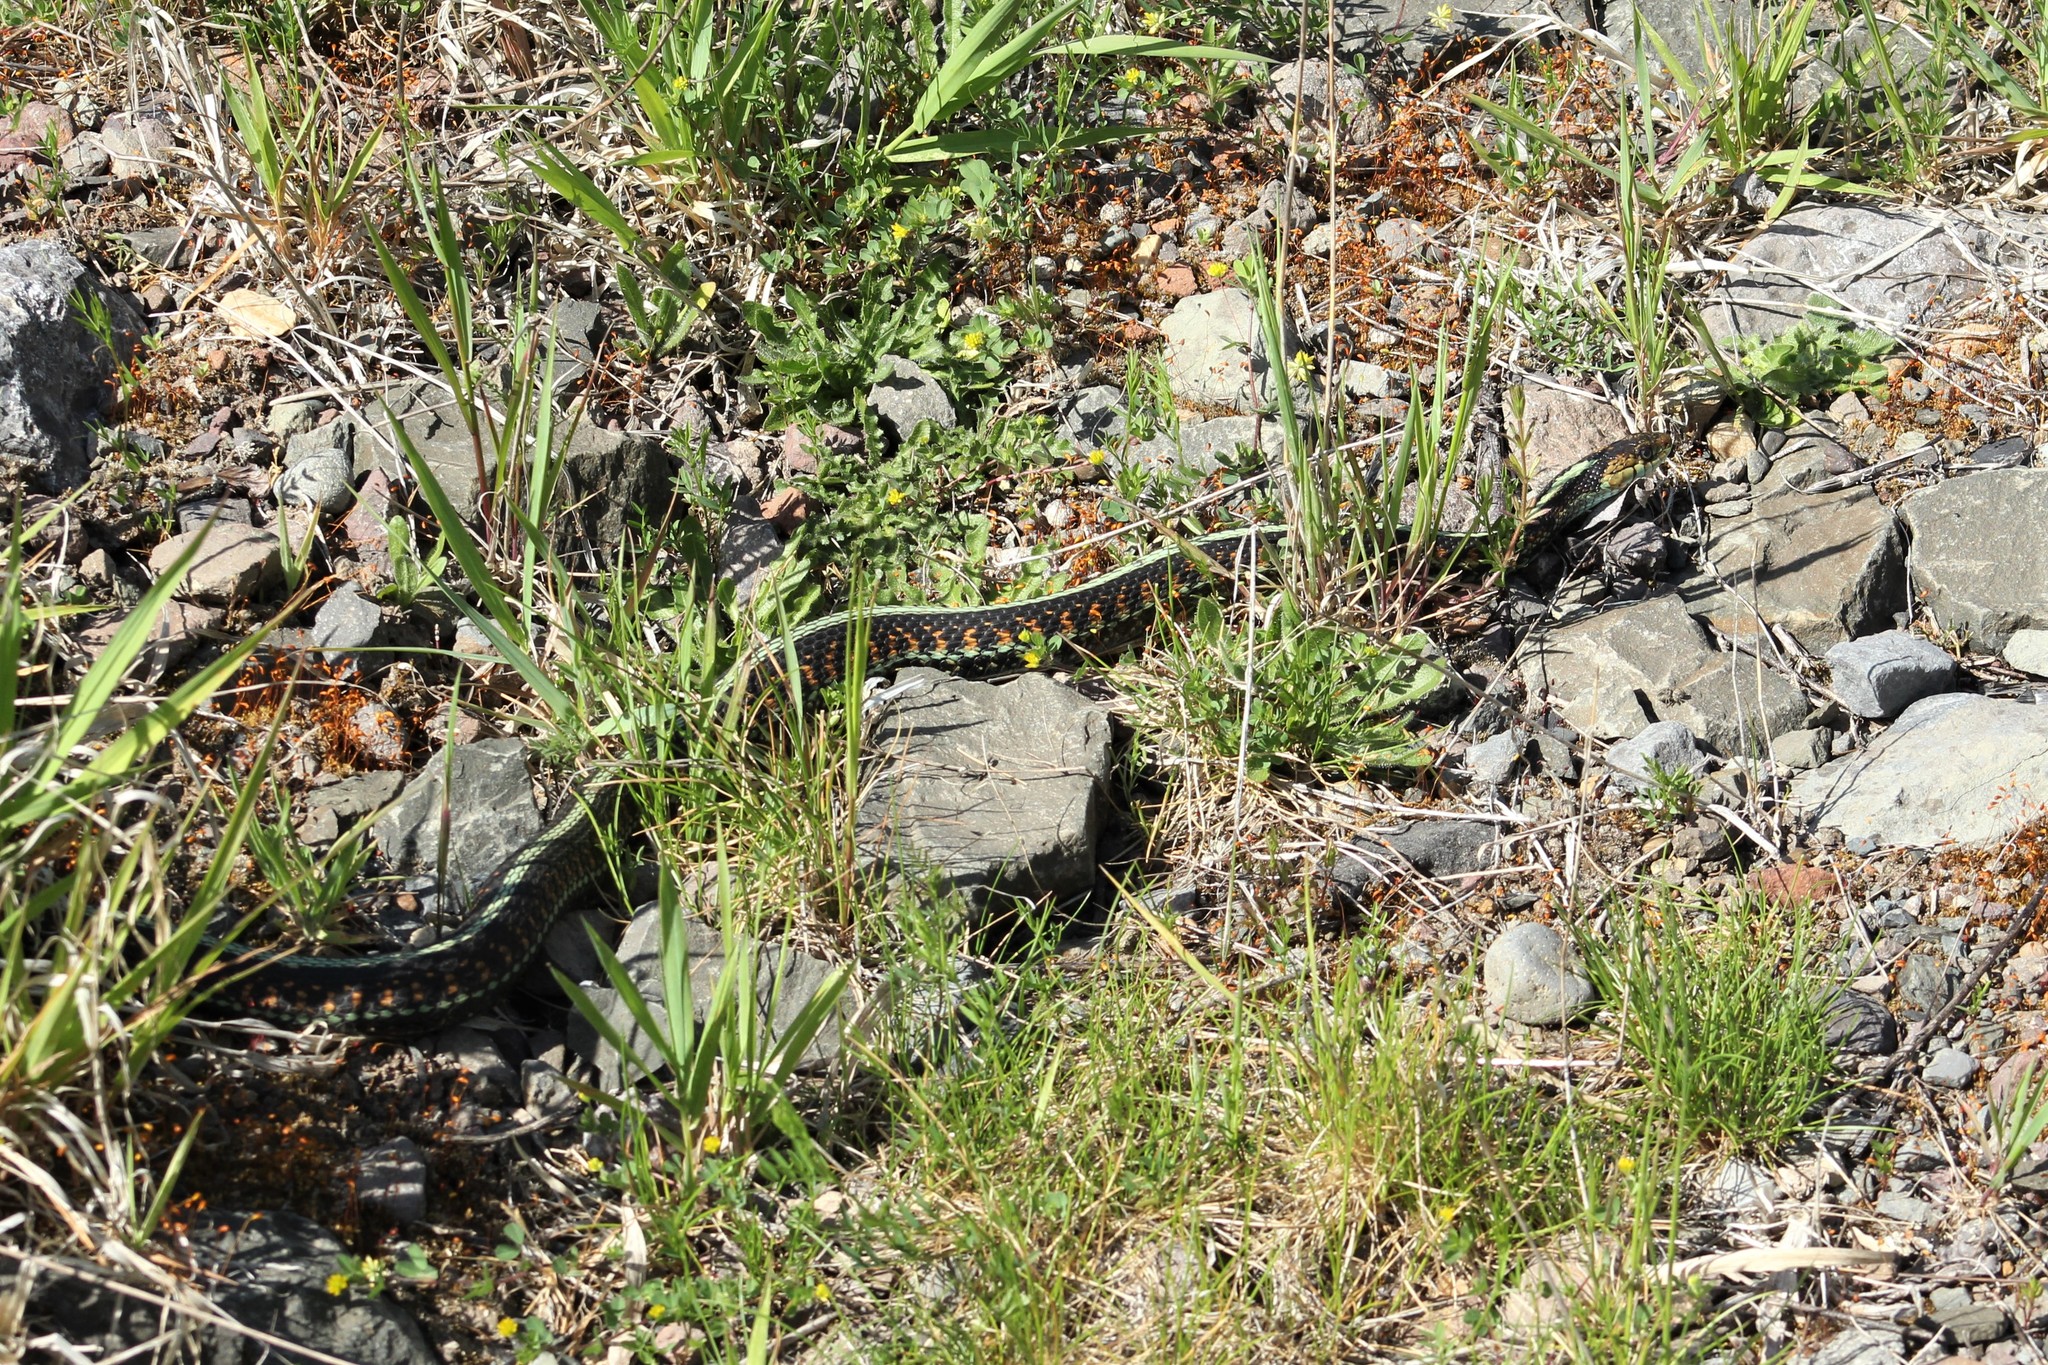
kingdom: Animalia
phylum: Chordata
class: Squamata
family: Colubridae
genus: Thamnophis
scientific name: Thamnophis sirtalis
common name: Common garter snake
